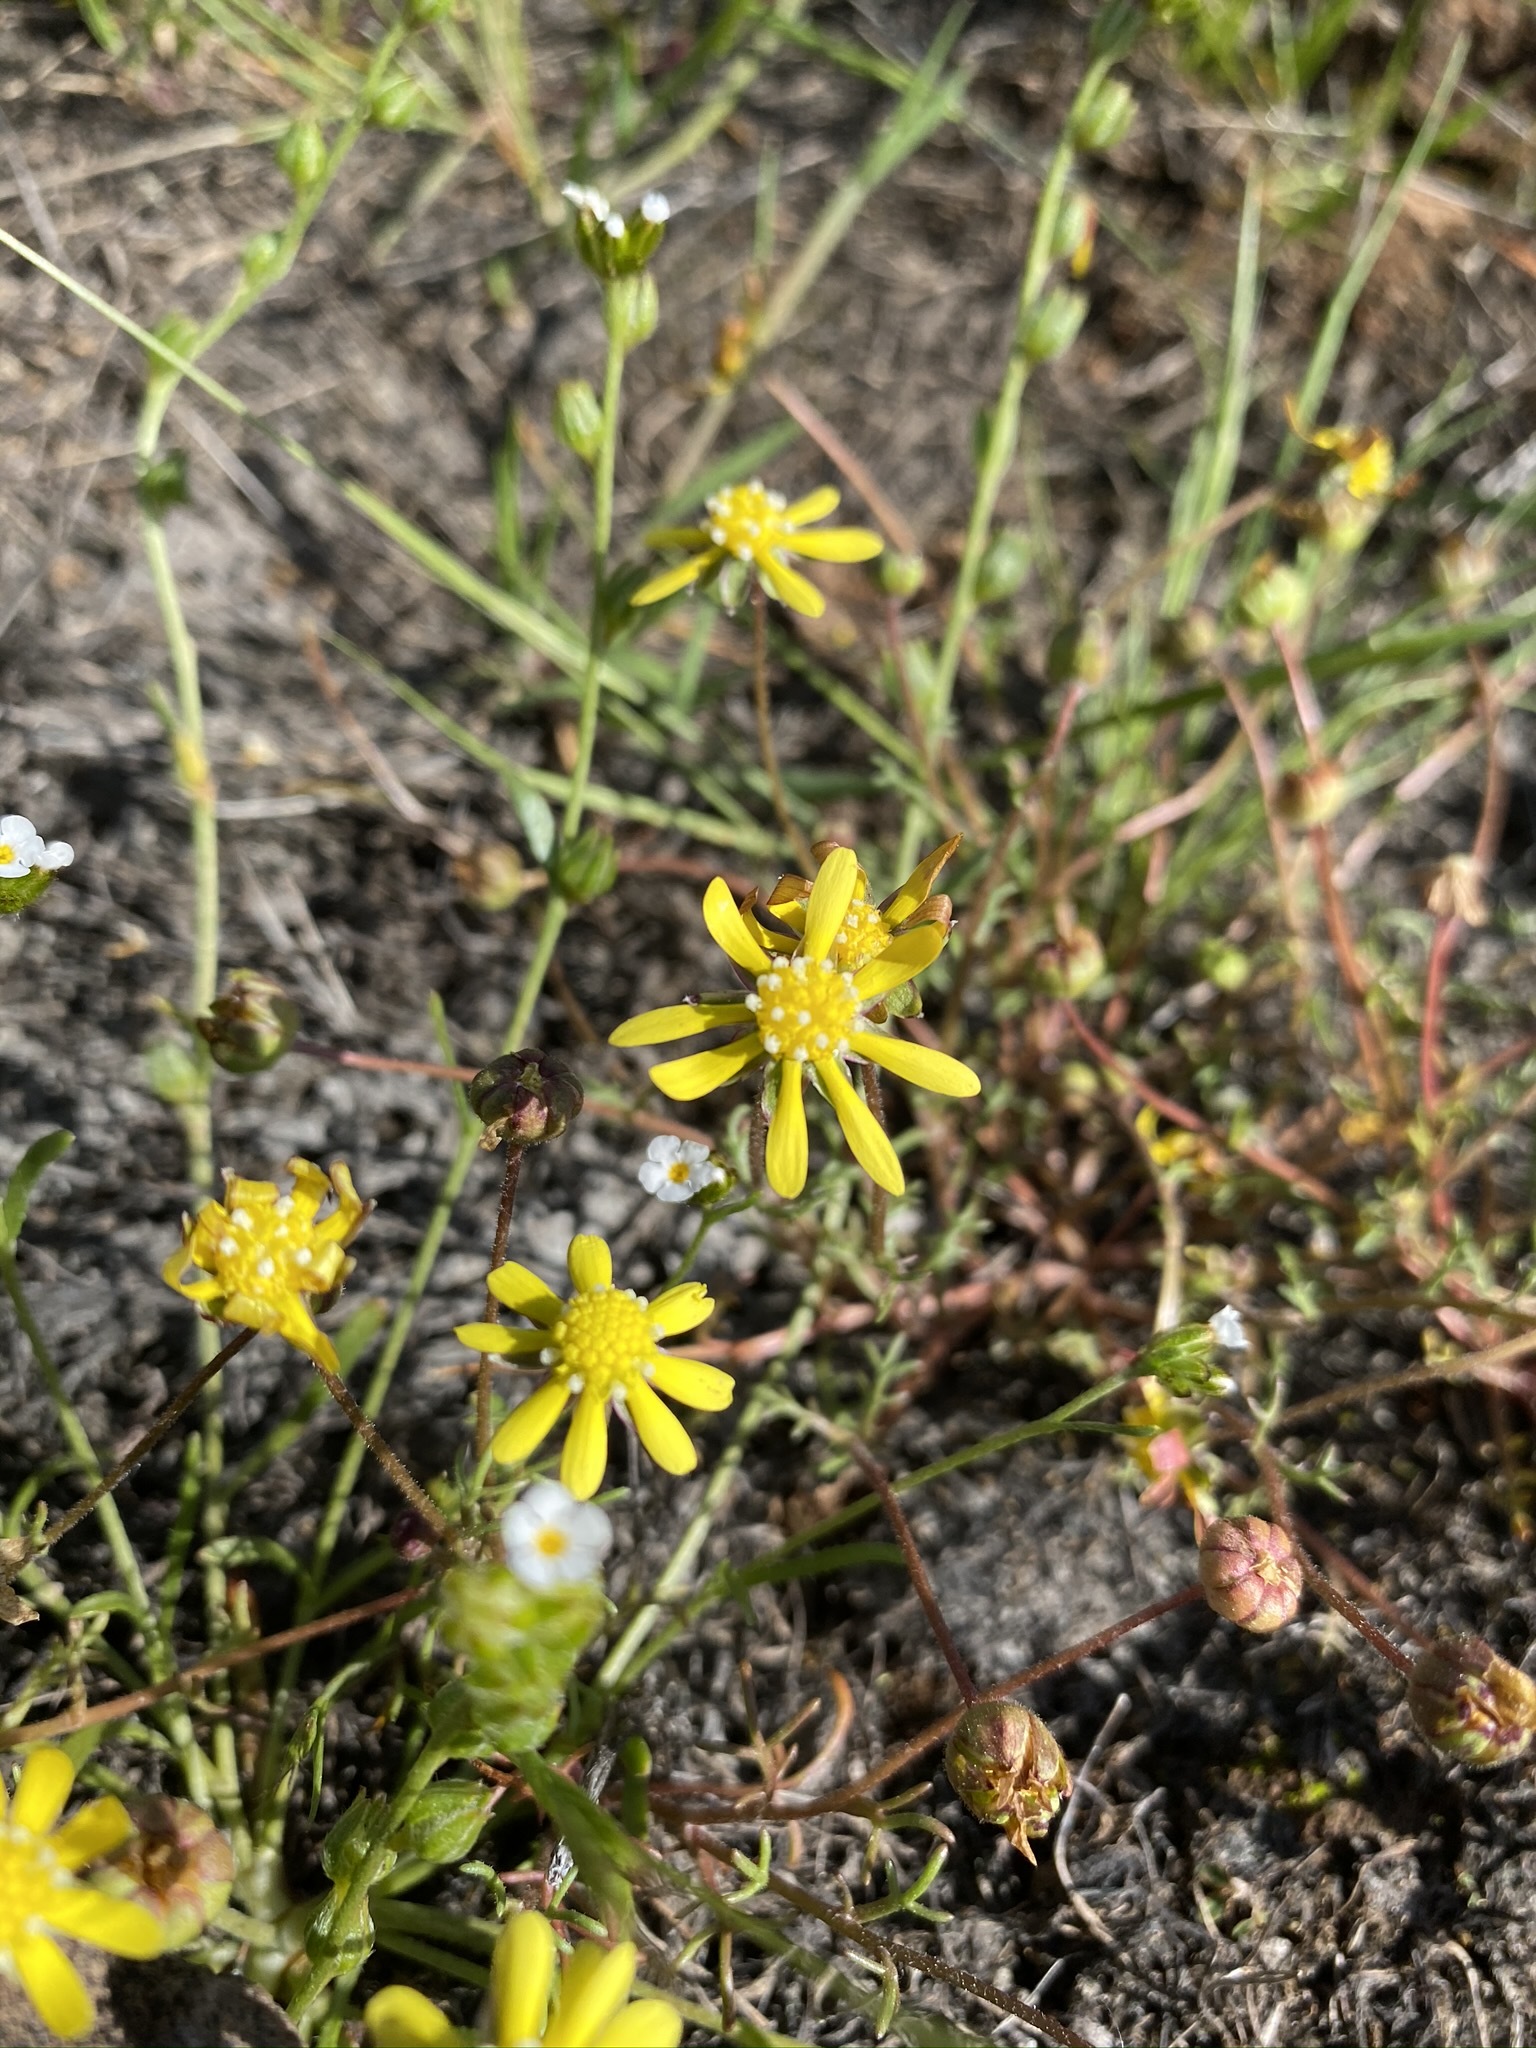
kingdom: Plantae
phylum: Tracheophyta
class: Magnoliopsida
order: Asterales
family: Asteraceae
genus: Blennosperma
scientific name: Blennosperma nanum
